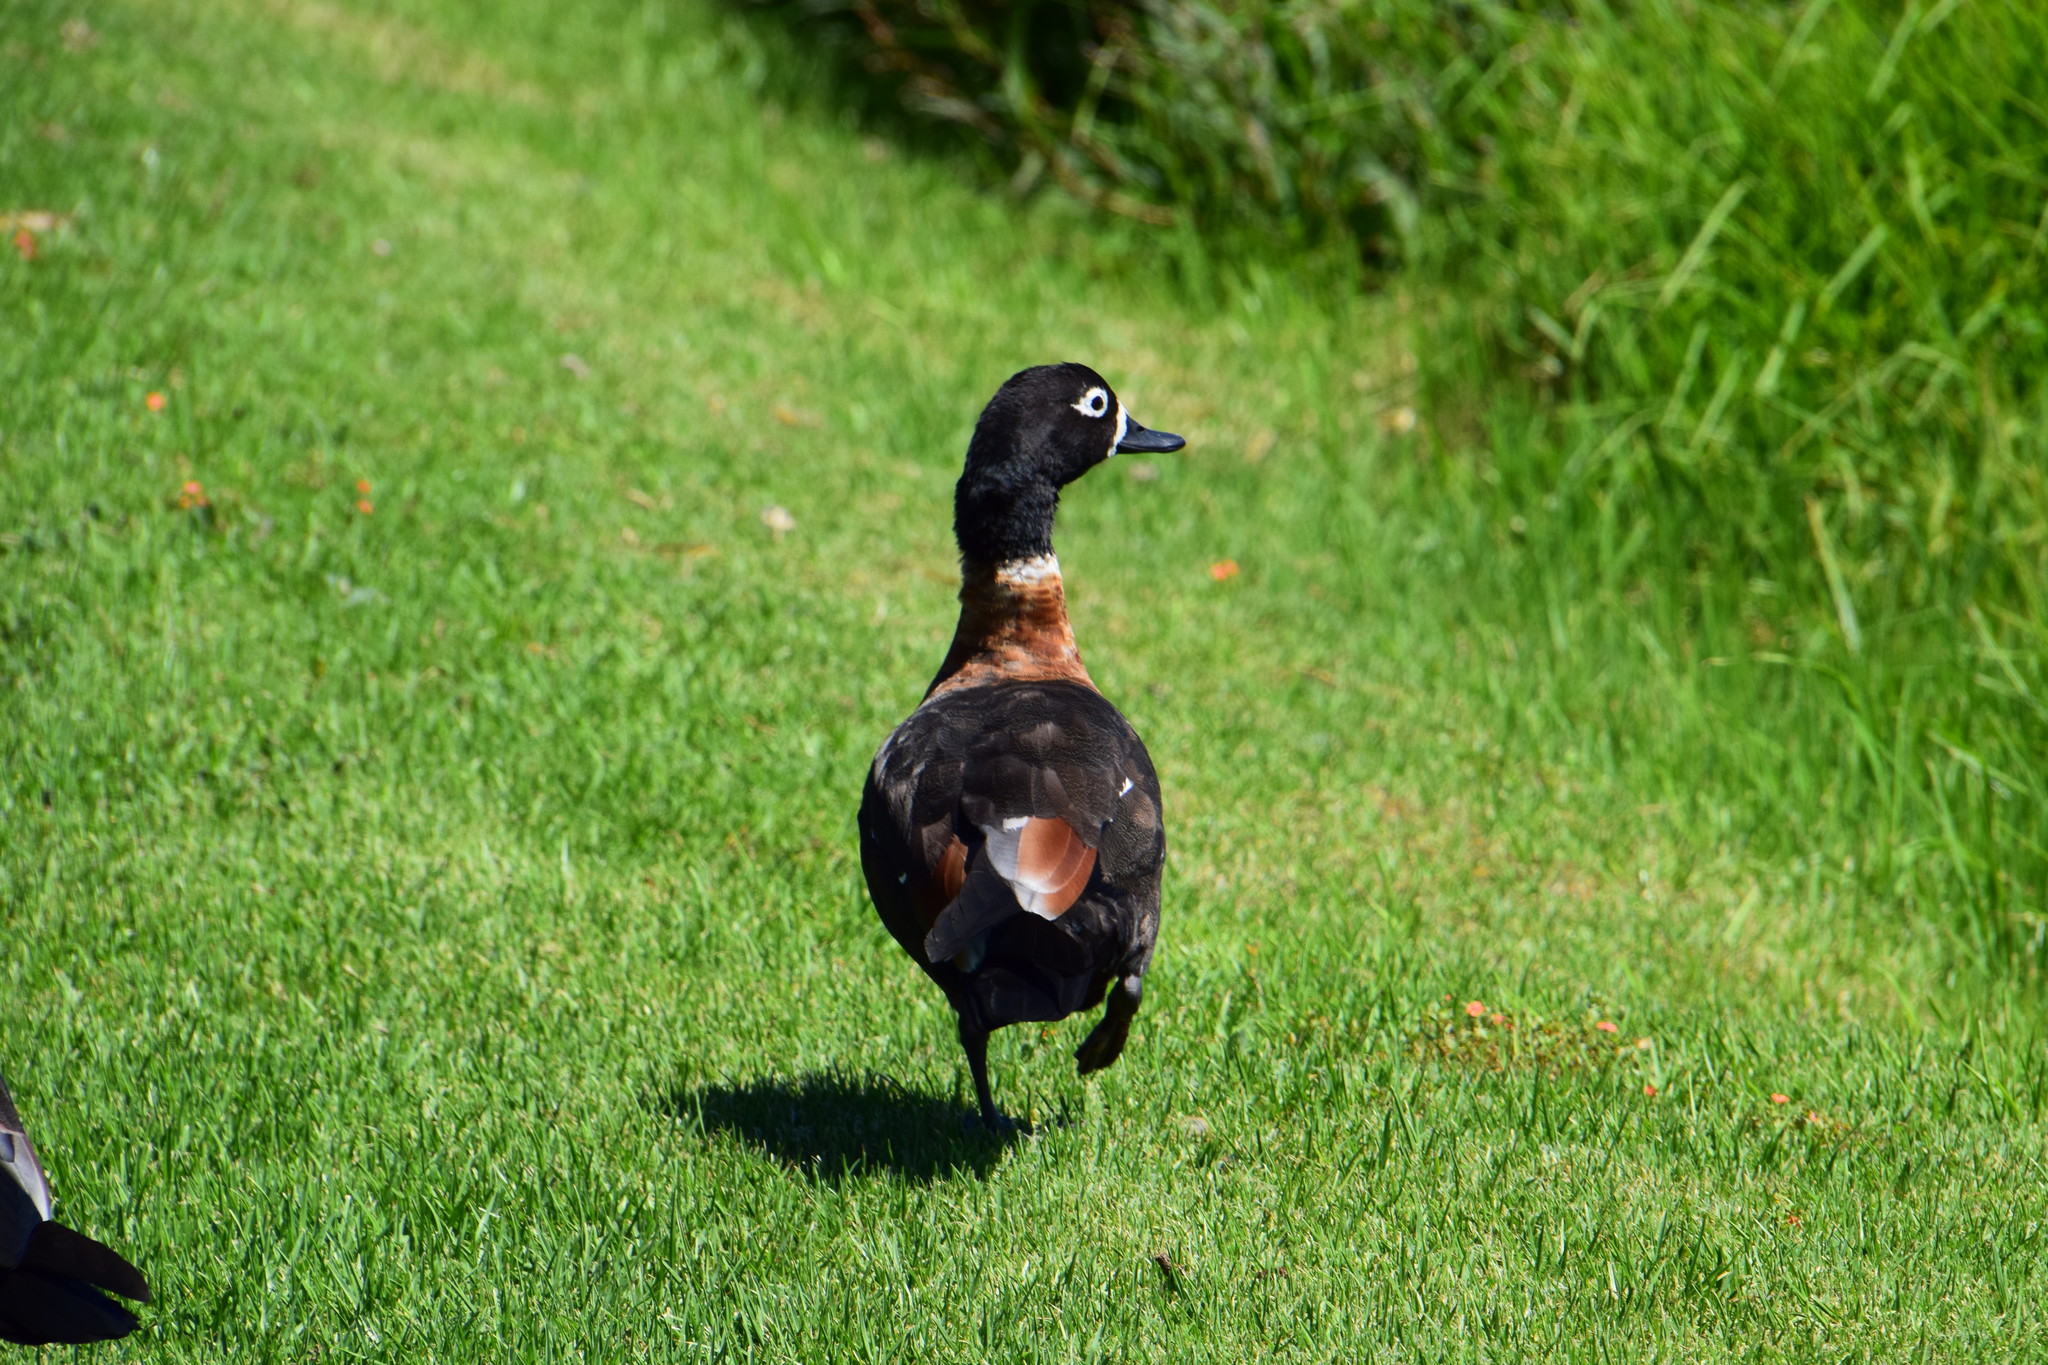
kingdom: Animalia
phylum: Chordata
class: Aves
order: Anseriformes
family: Anatidae
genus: Tadorna
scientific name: Tadorna tadornoides
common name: Australian shelduck
